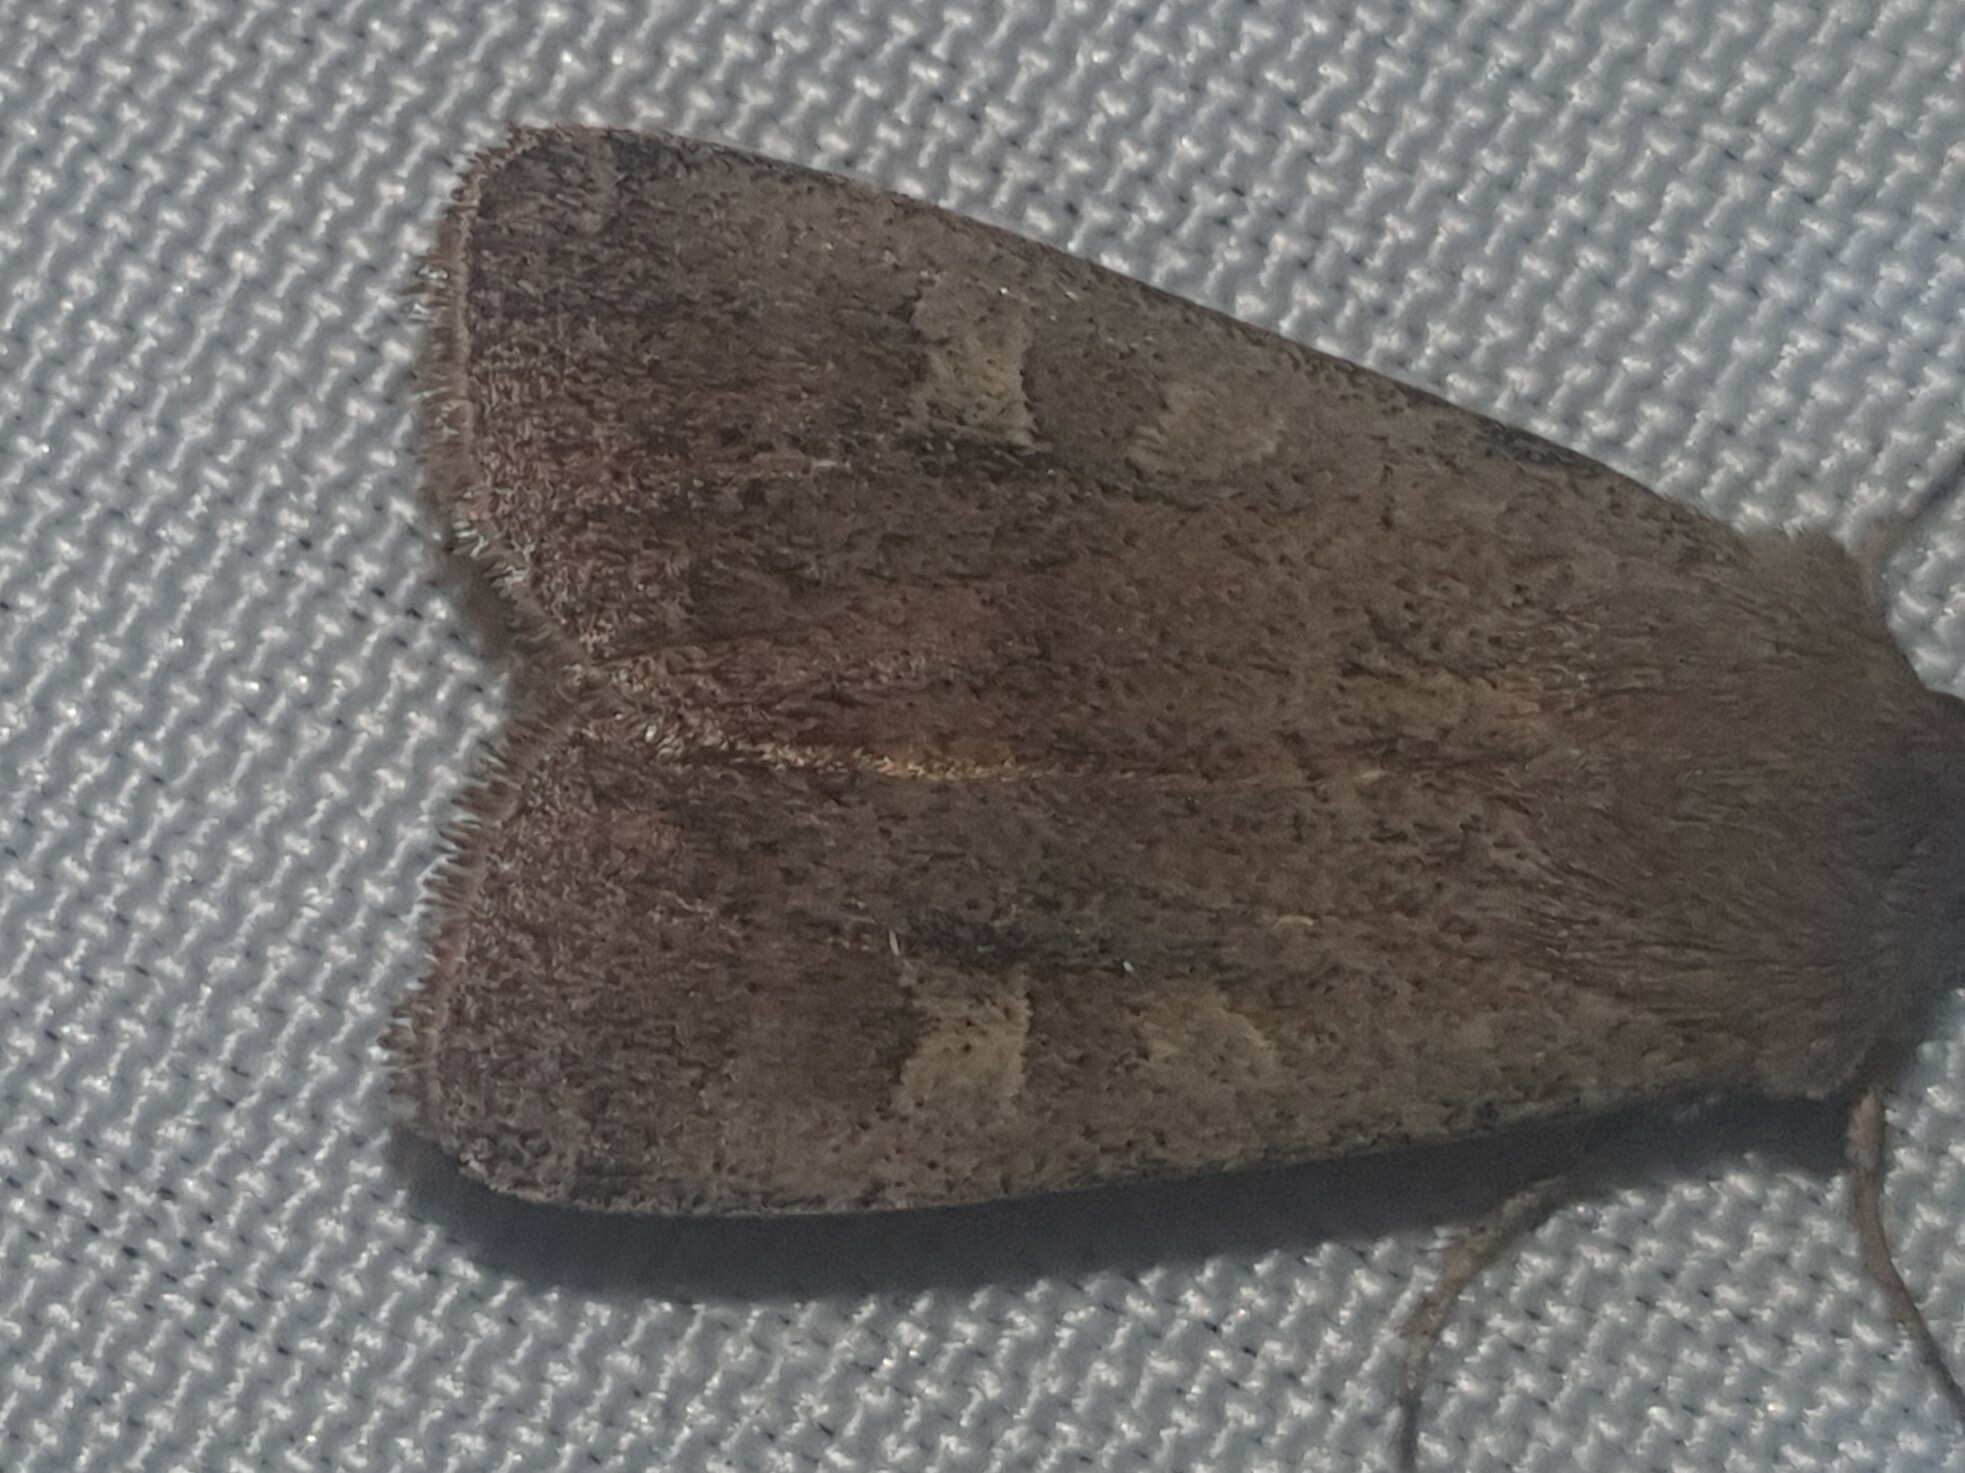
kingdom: Animalia
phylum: Arthropoda
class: Insecta
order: Lepidoptera
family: Noctuidae
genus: Xestia
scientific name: Xestia xanthographa
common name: Square-spot rustic
